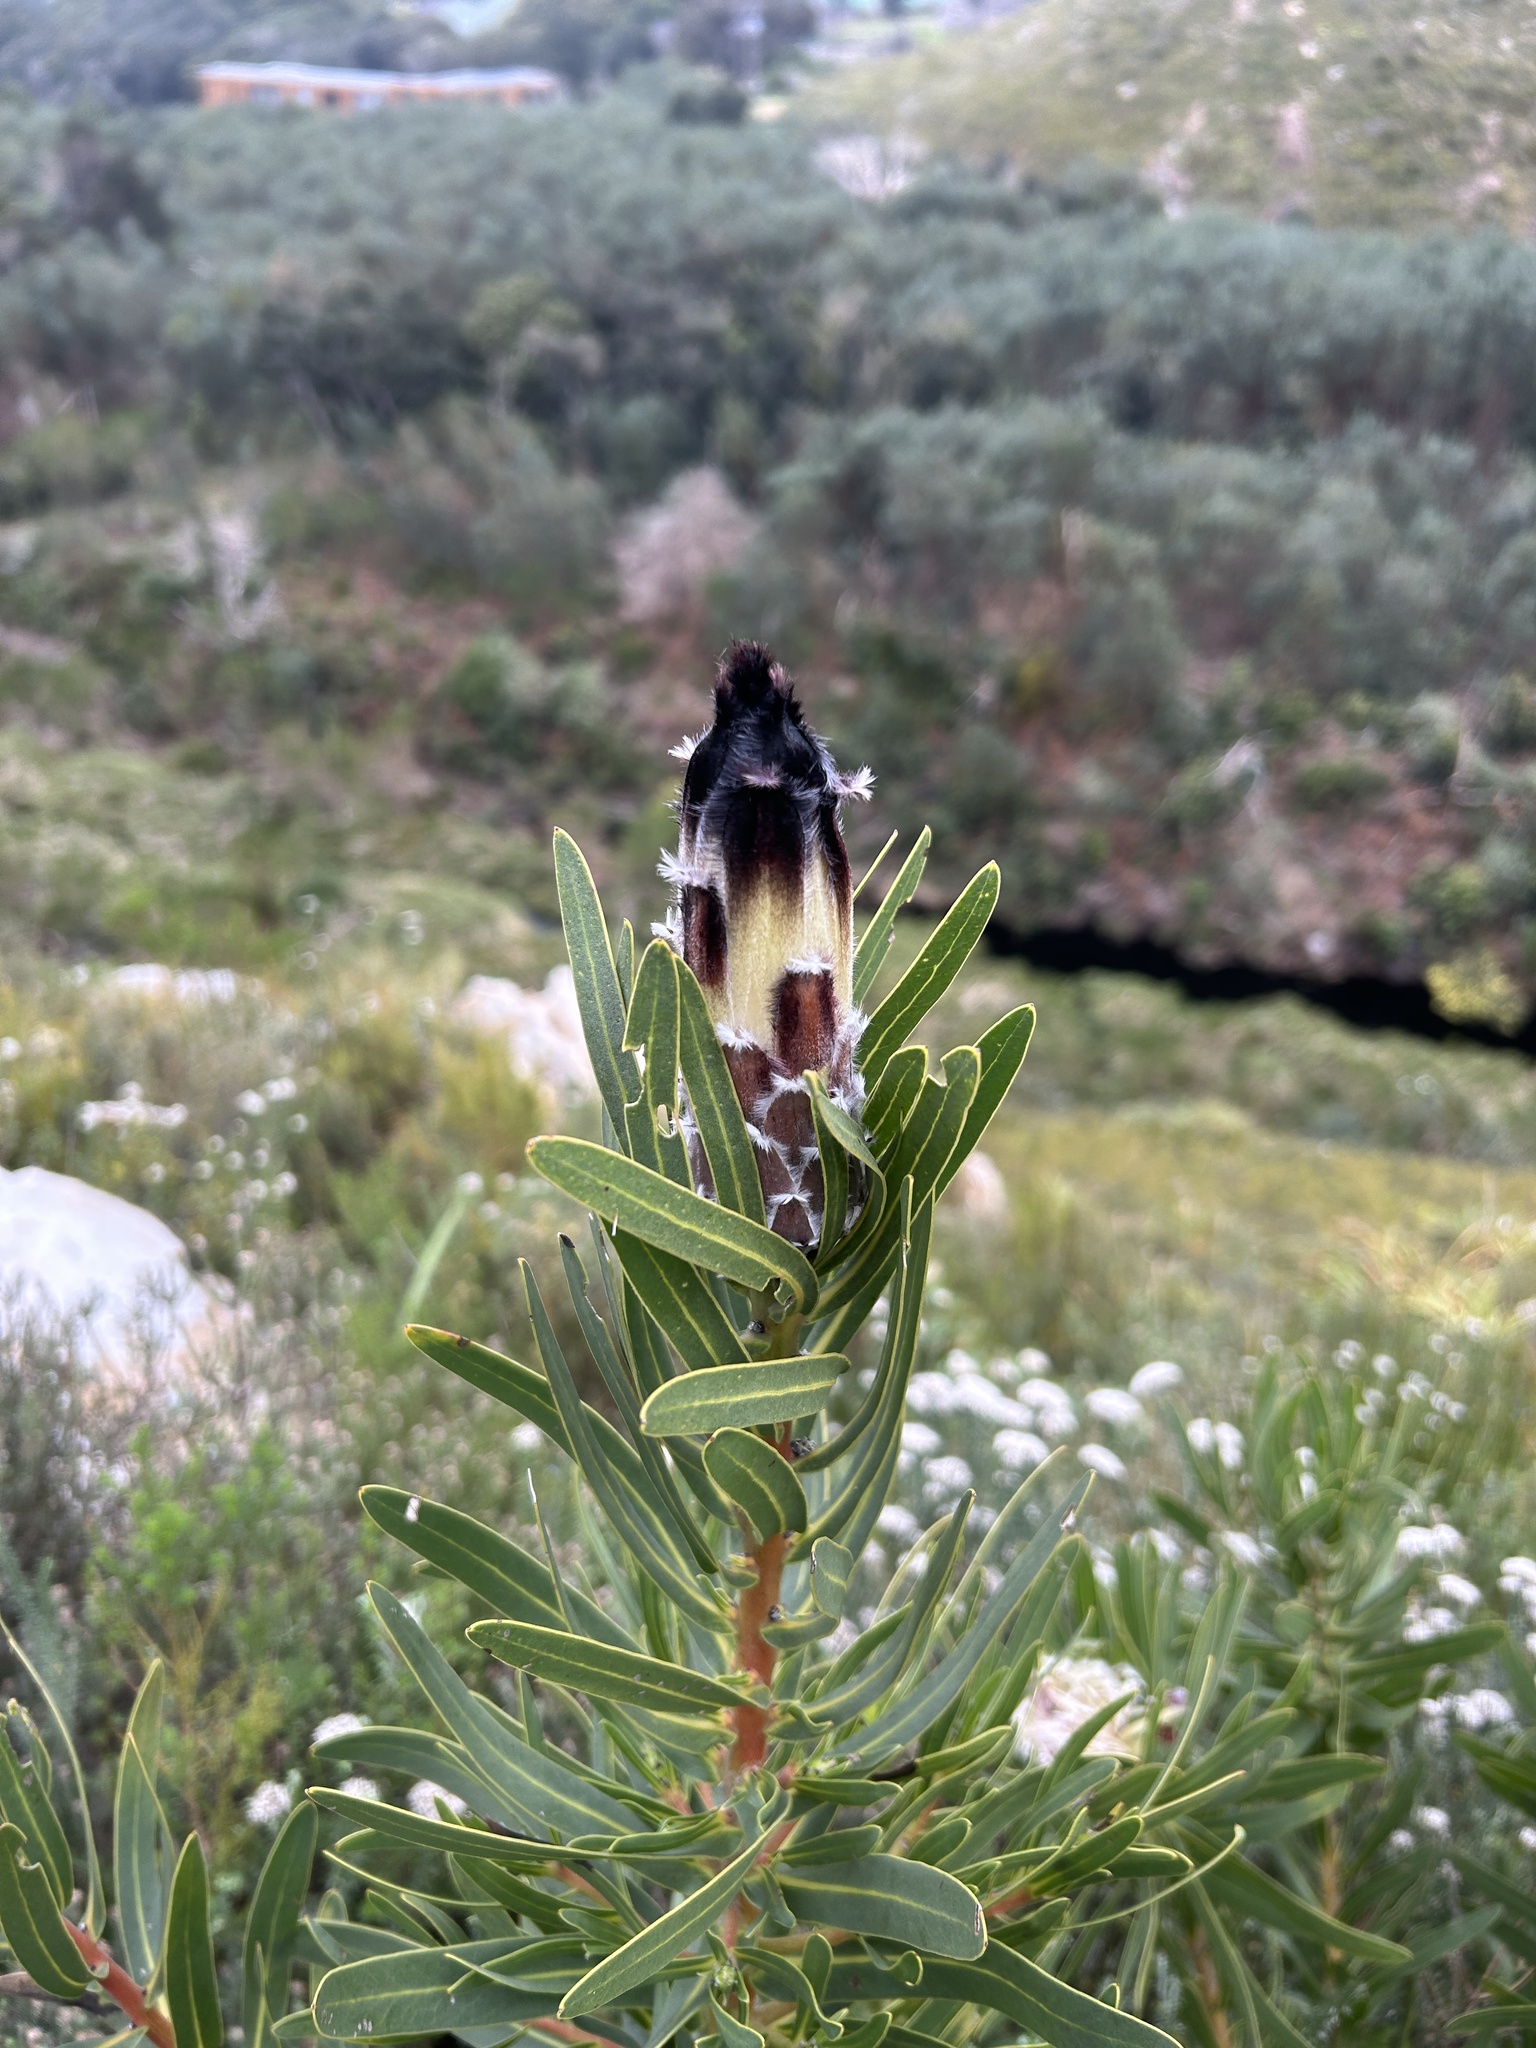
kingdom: Plantae
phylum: Tracheophyta
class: Magnoliopsida
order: Proteales
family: Proteaceae
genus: Protea
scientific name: Protea lepidocarpodendron
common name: Black-bearded protea
